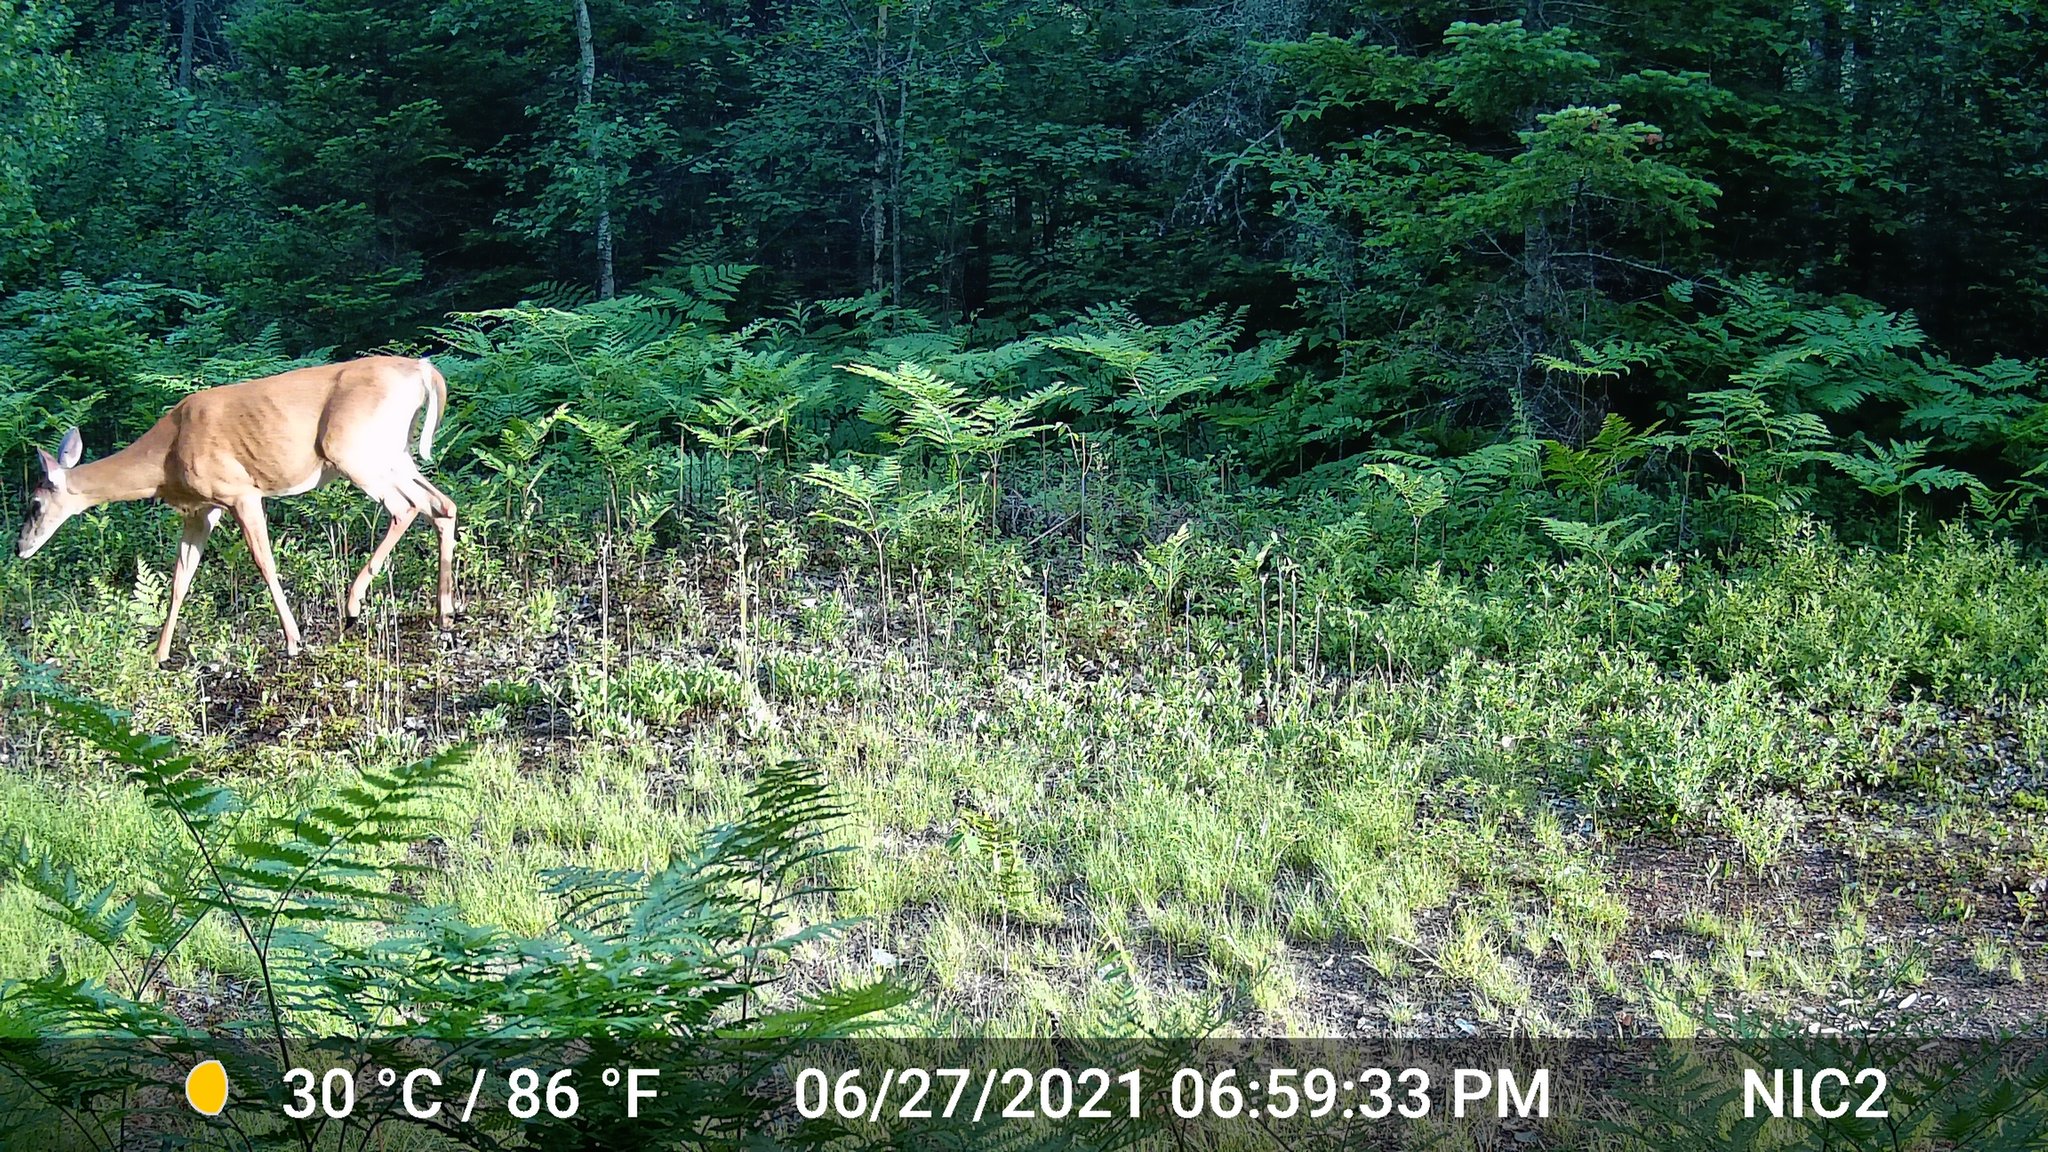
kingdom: Animalia
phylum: Chordata
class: Mammalia
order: Artiodactyla
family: Cervidae
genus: Odocoileus
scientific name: Odocoileus virginianus
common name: White-tailed deer
